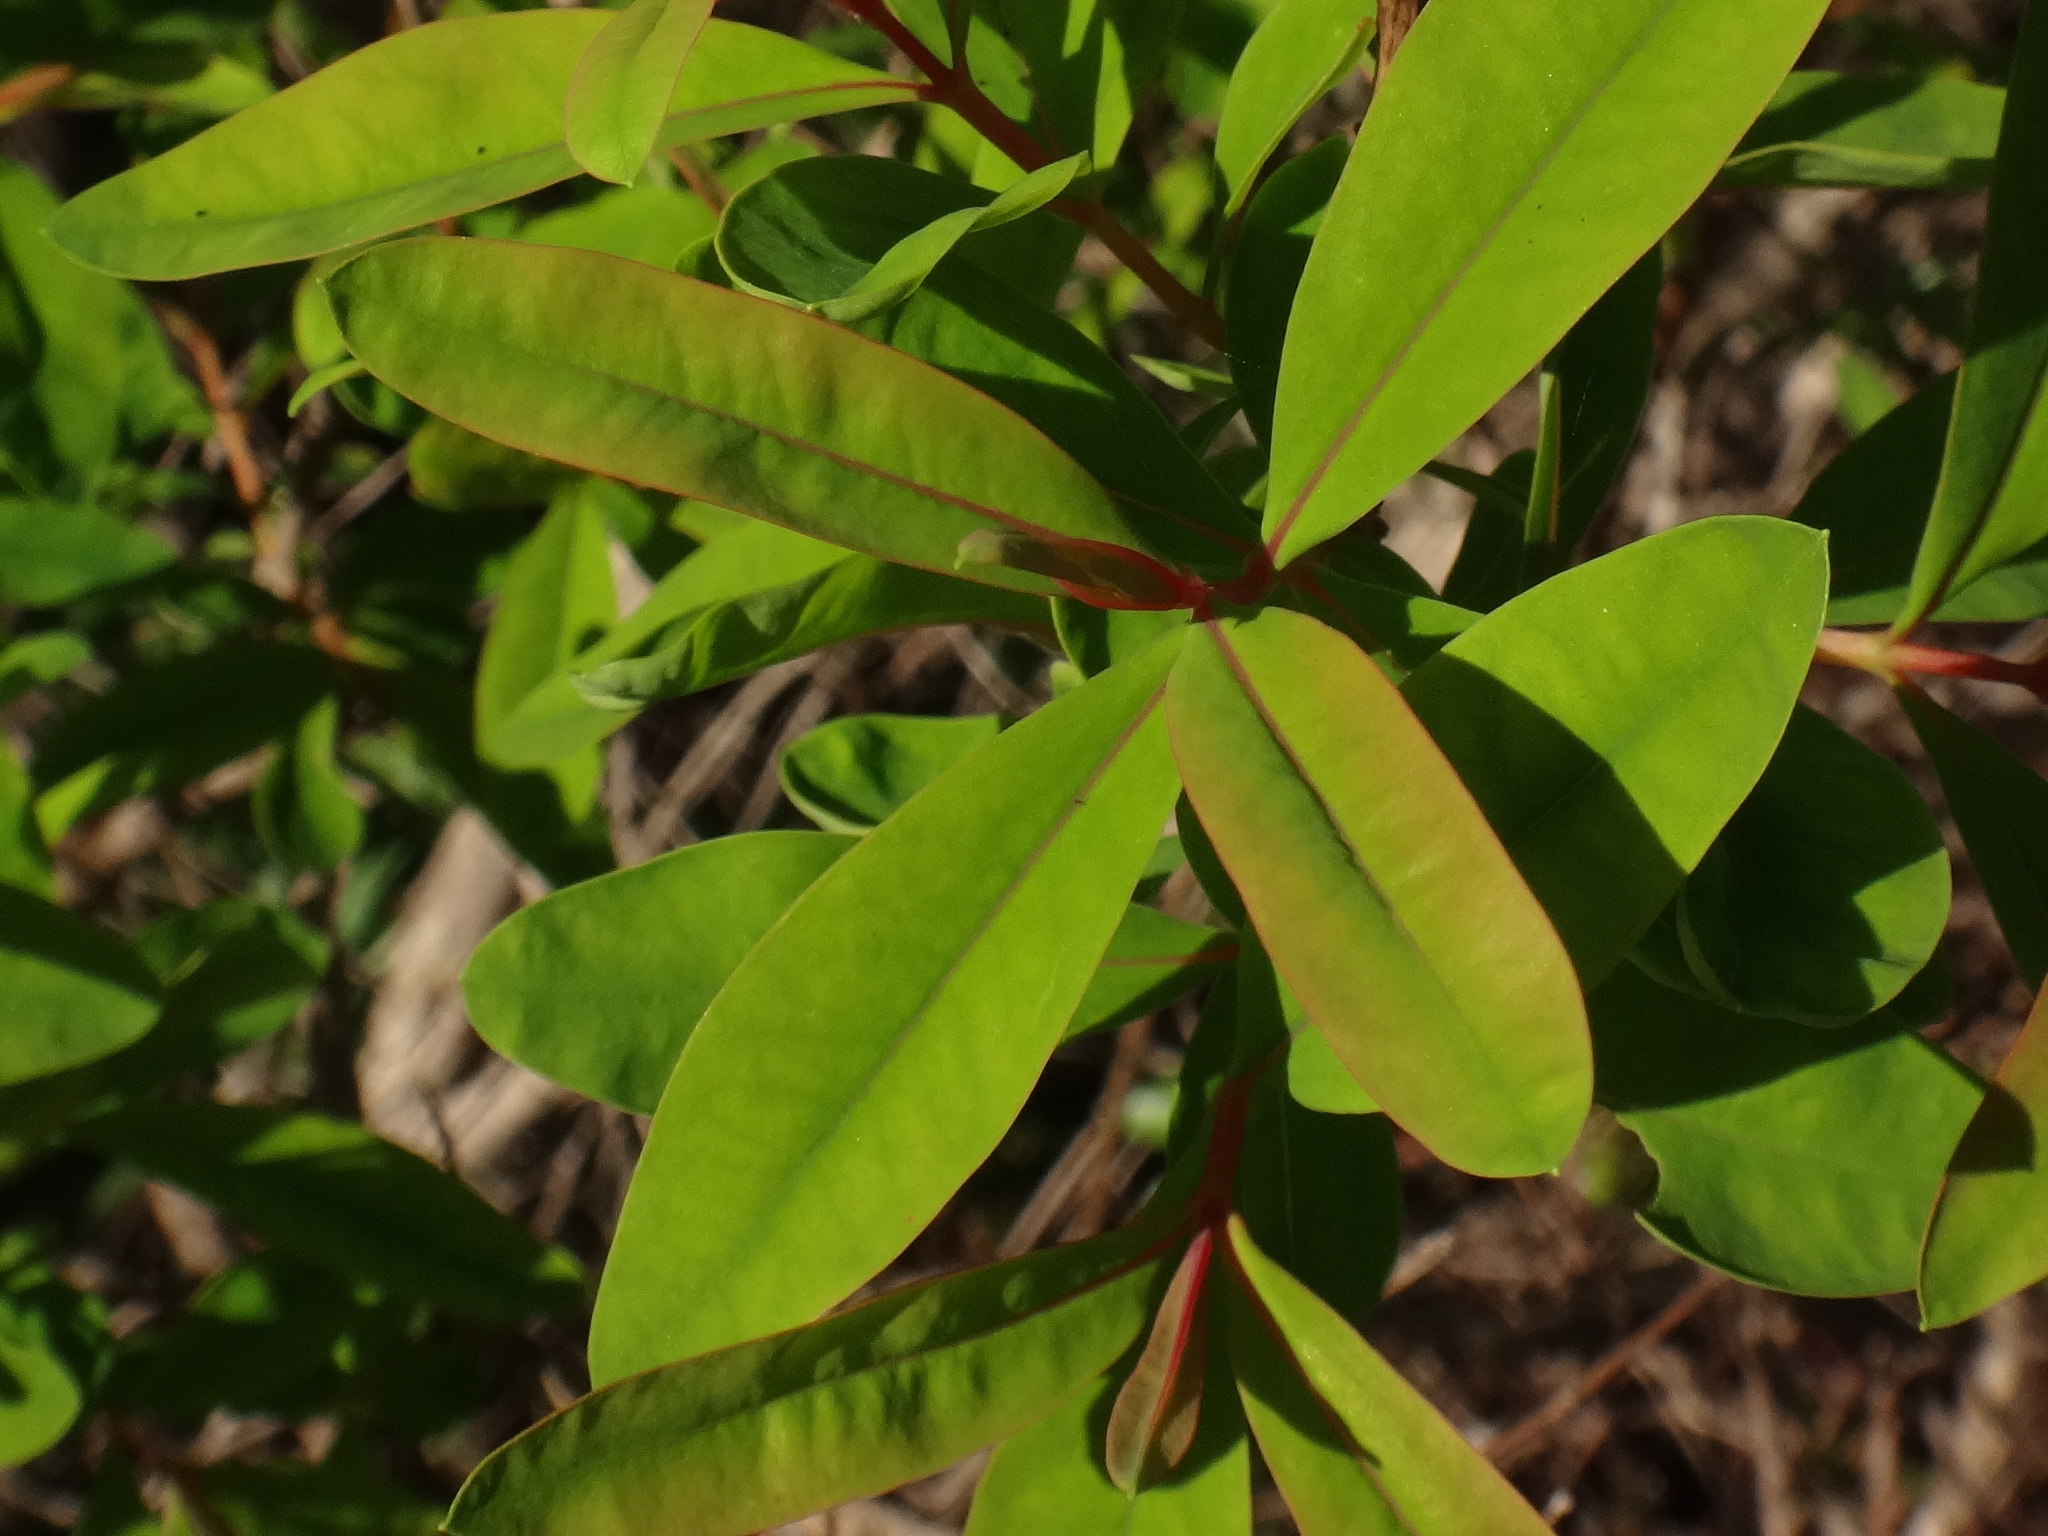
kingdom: Plantae
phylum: Tracheophyta
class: Magnoliopsida
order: Malpighiales
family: Hypericaceae
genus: Hypericum
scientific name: Hypericum canariense
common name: Canary island st. johnswort
